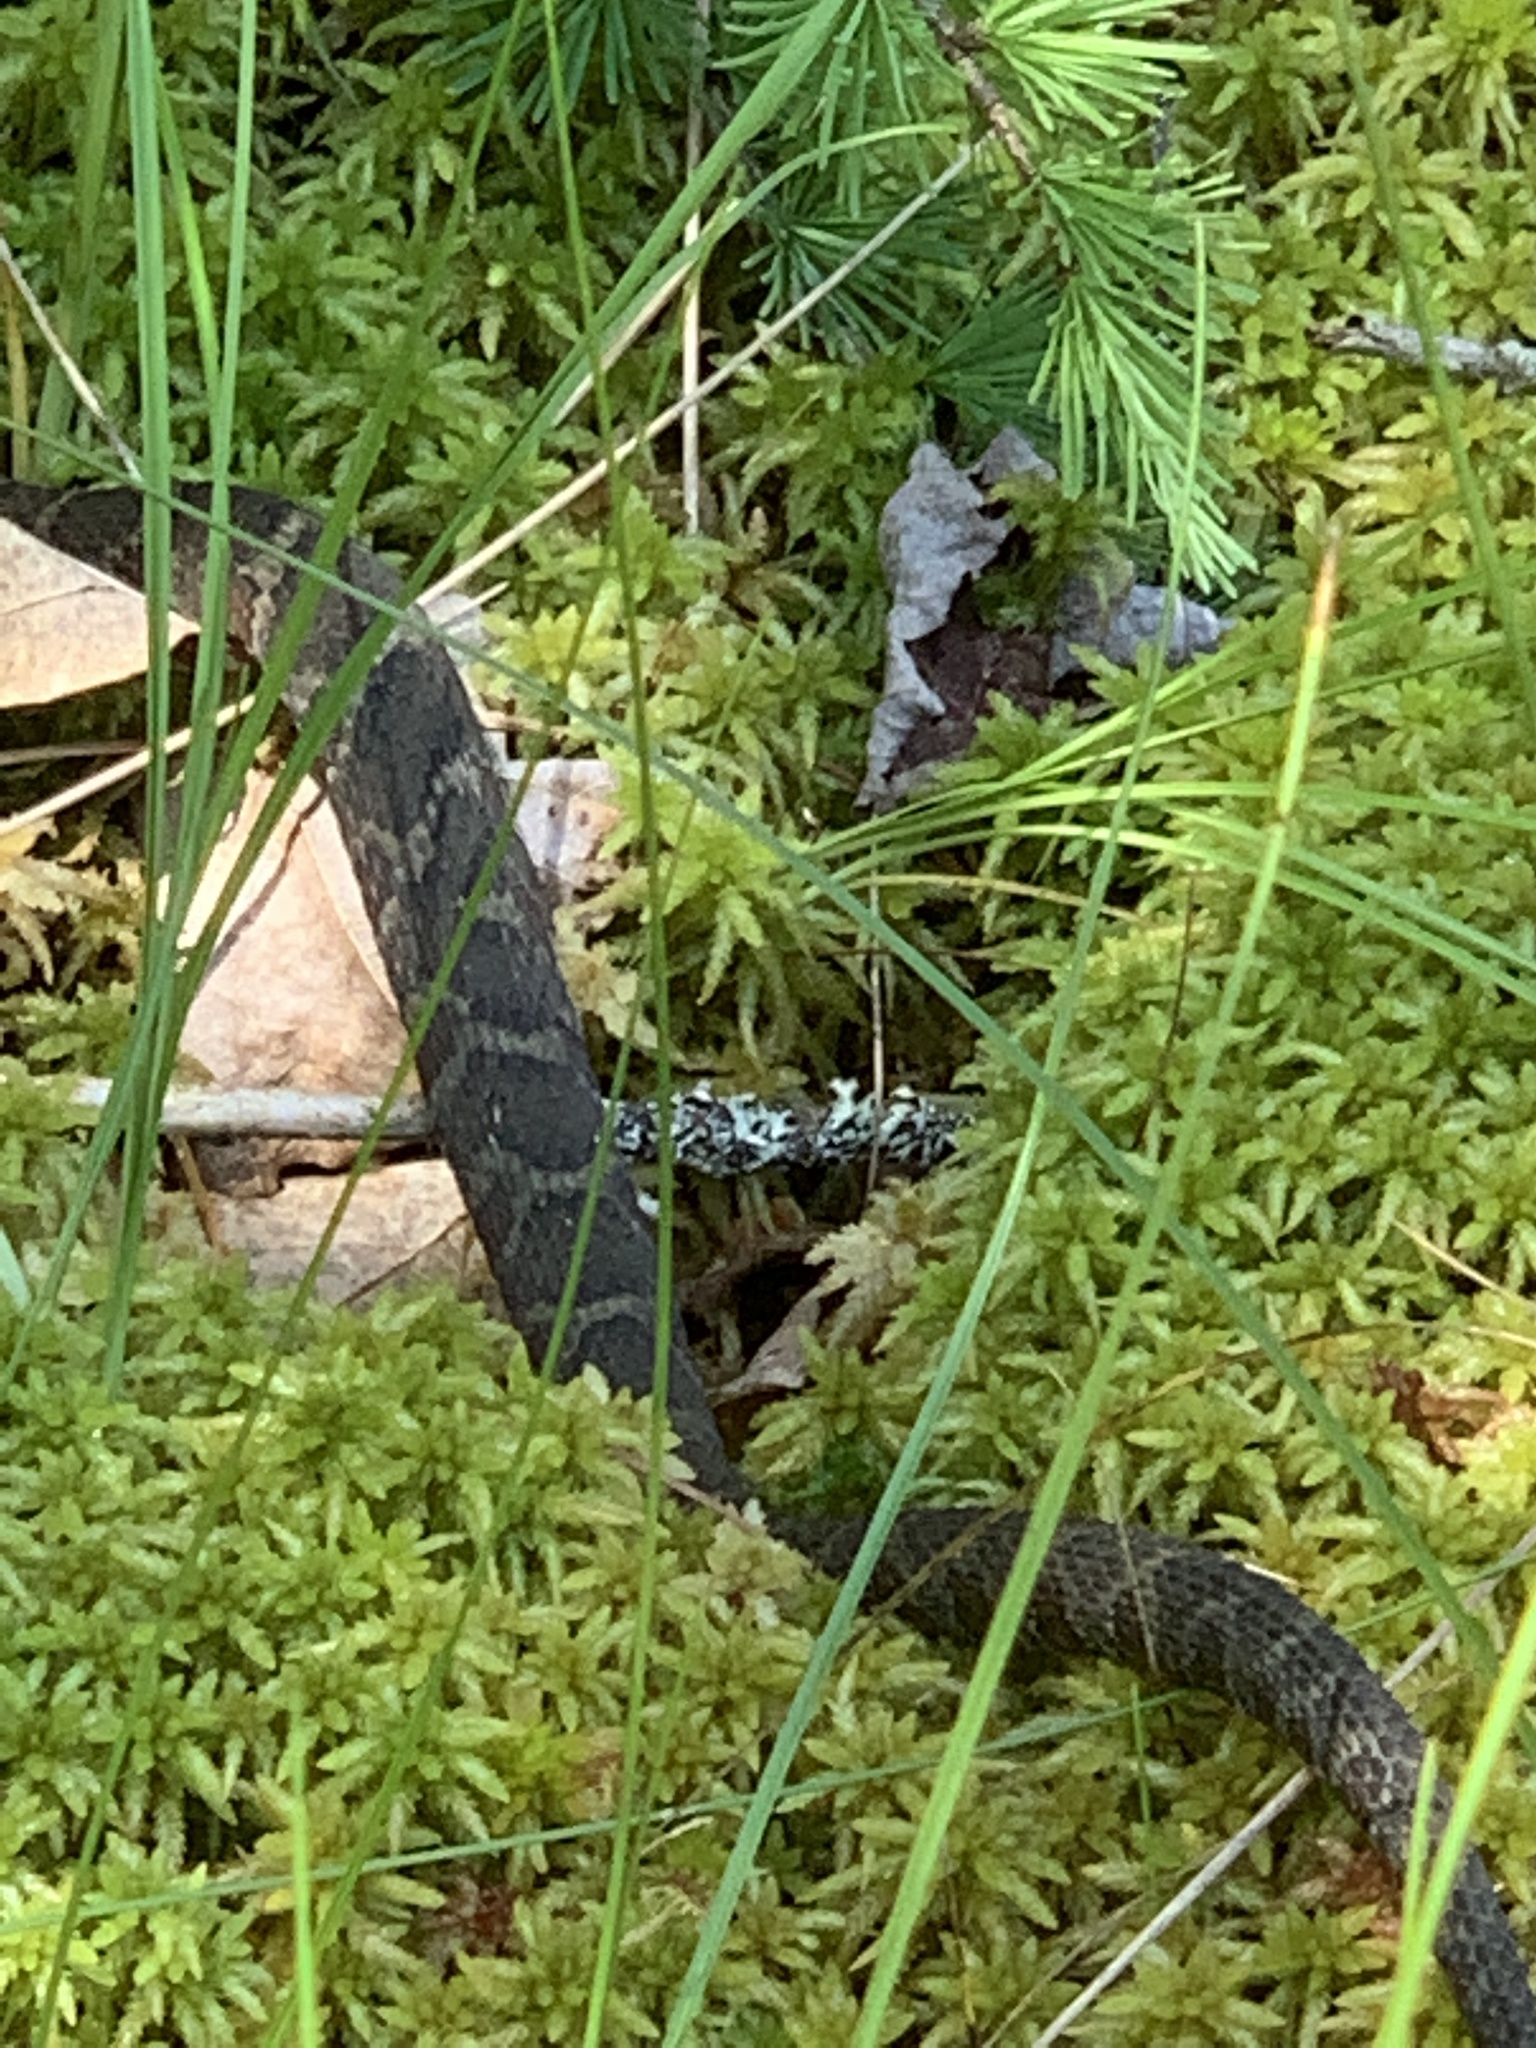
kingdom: Animalia
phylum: Chordata
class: Squamata
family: Colubridae
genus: Nerodia
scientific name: Nerodia sipedon
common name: Northern water snake
